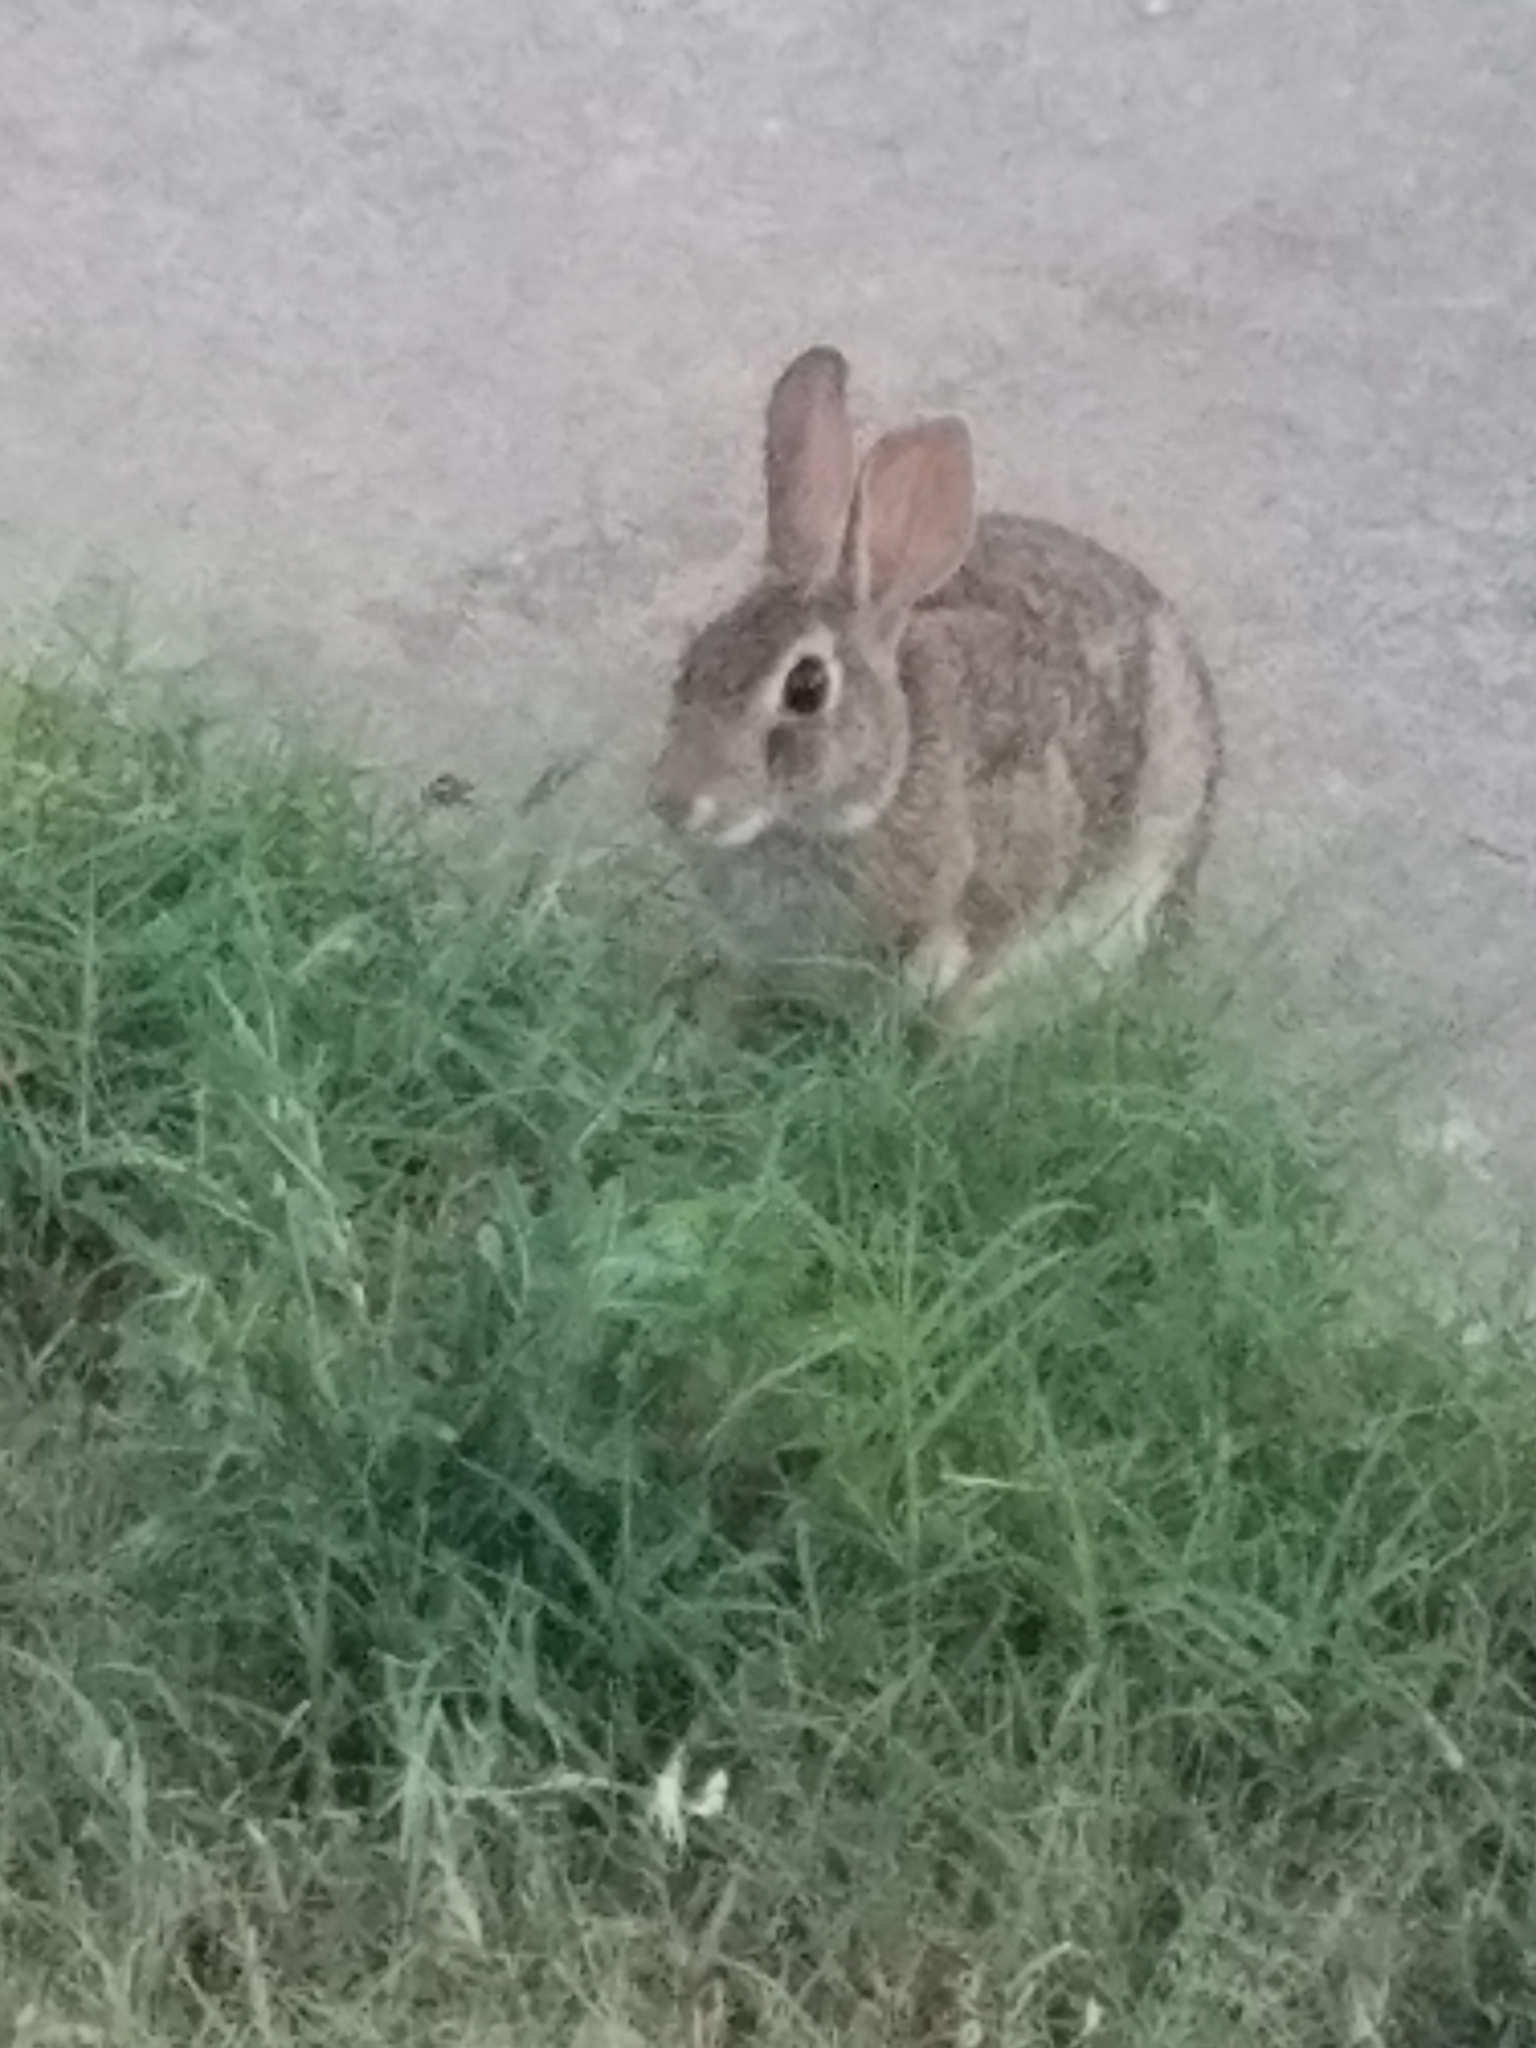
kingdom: Animalia
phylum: Chordata
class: Mammalia
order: Lagomorpha
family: Leporidae
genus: Sylvilagus
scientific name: Sylvilagus floridanus
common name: Eastern cottontail
